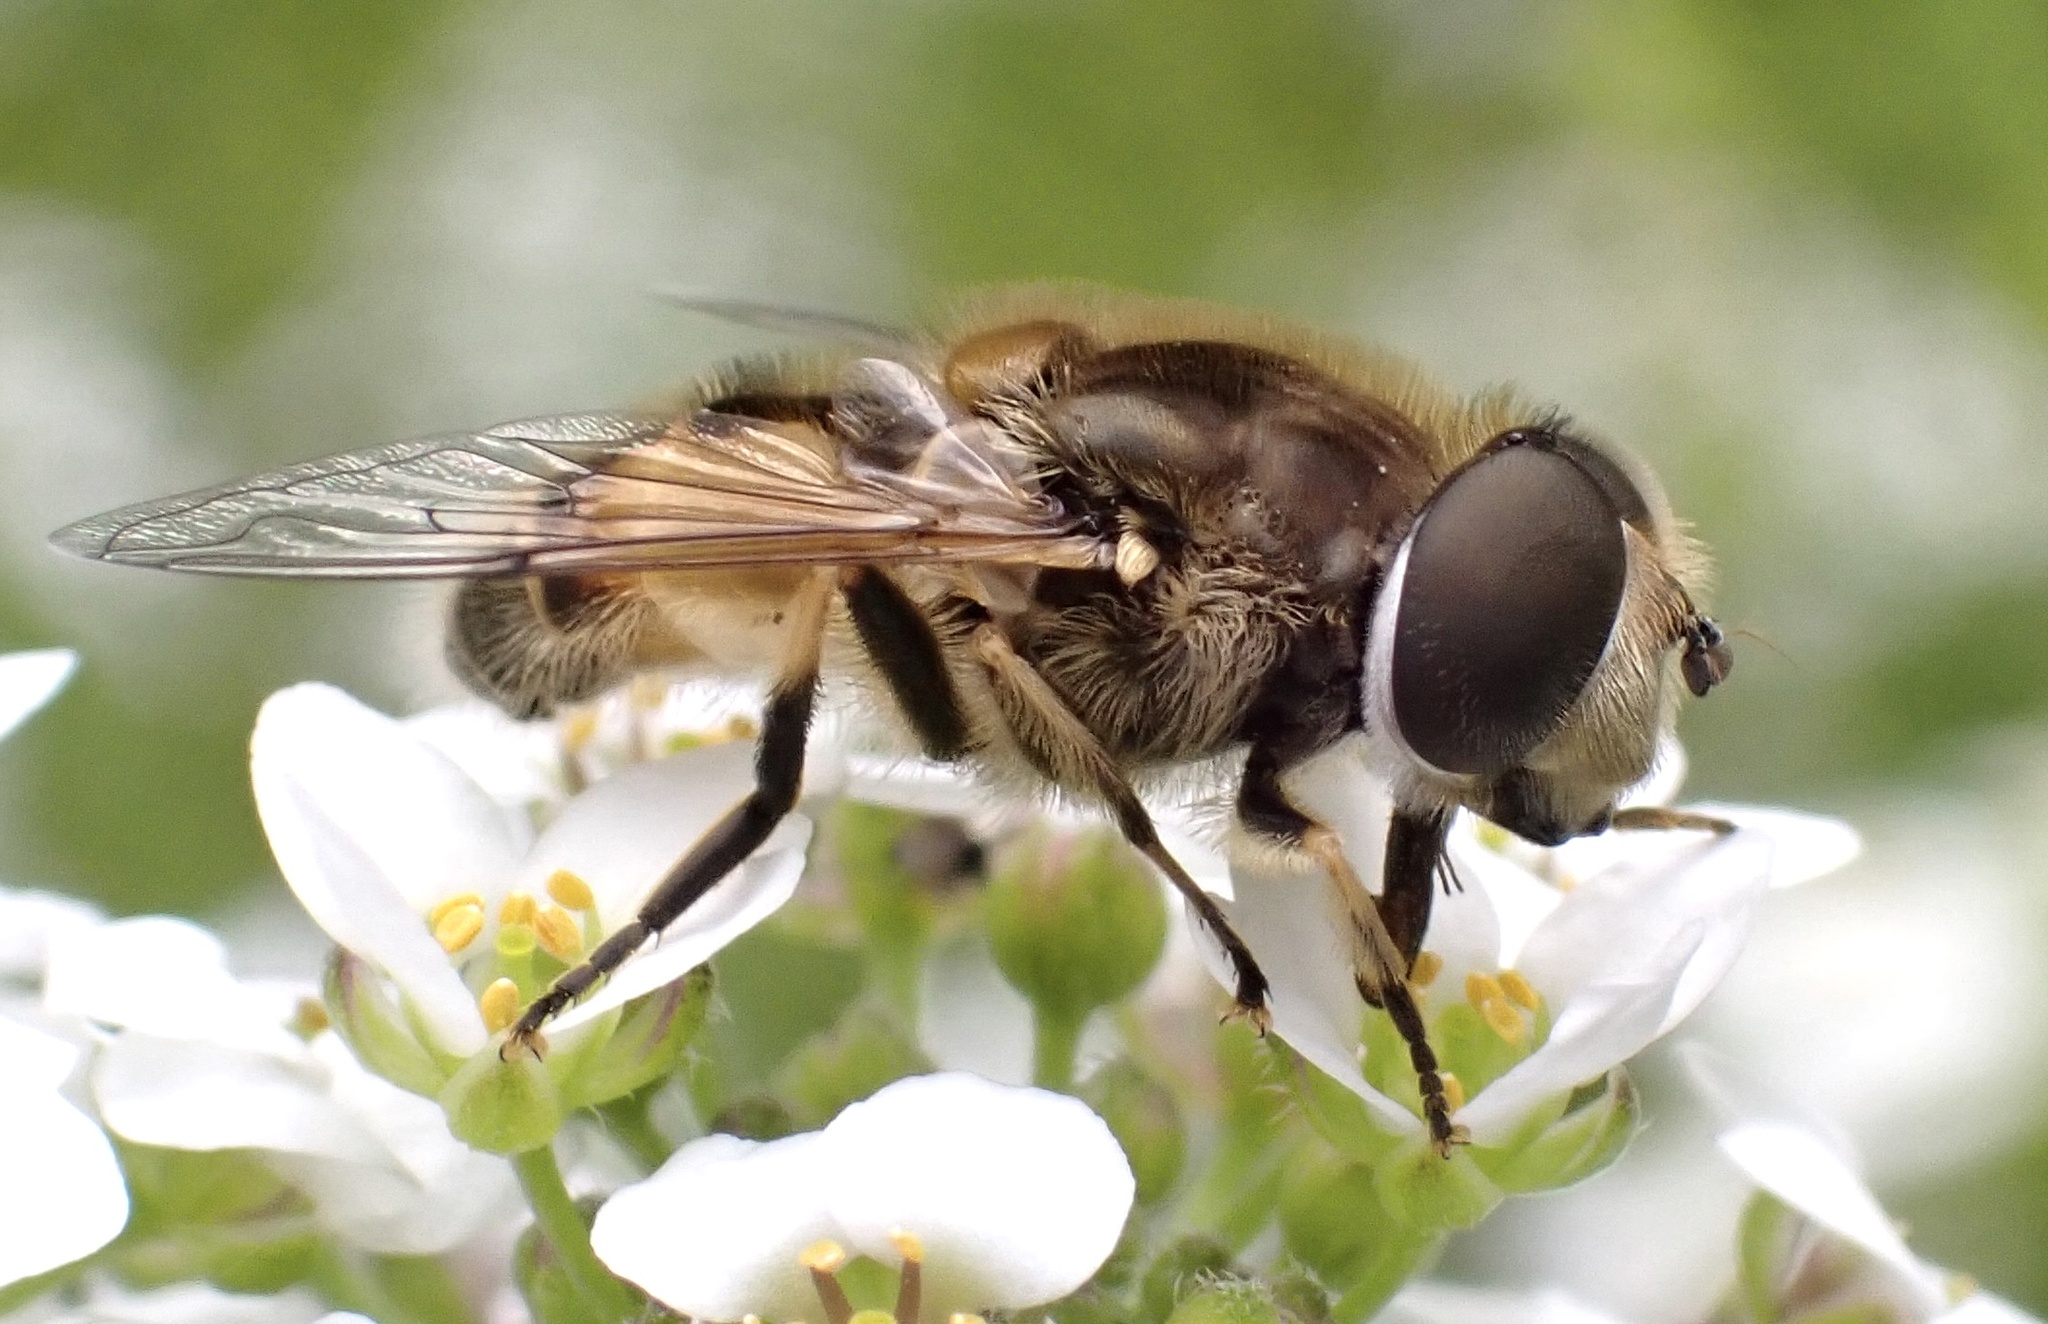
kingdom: Animalia
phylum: Arthropoda
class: Insecta
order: Diptera
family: Syrphidae
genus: Eristalis
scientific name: Eristalis arbustorum
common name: Hover fly
